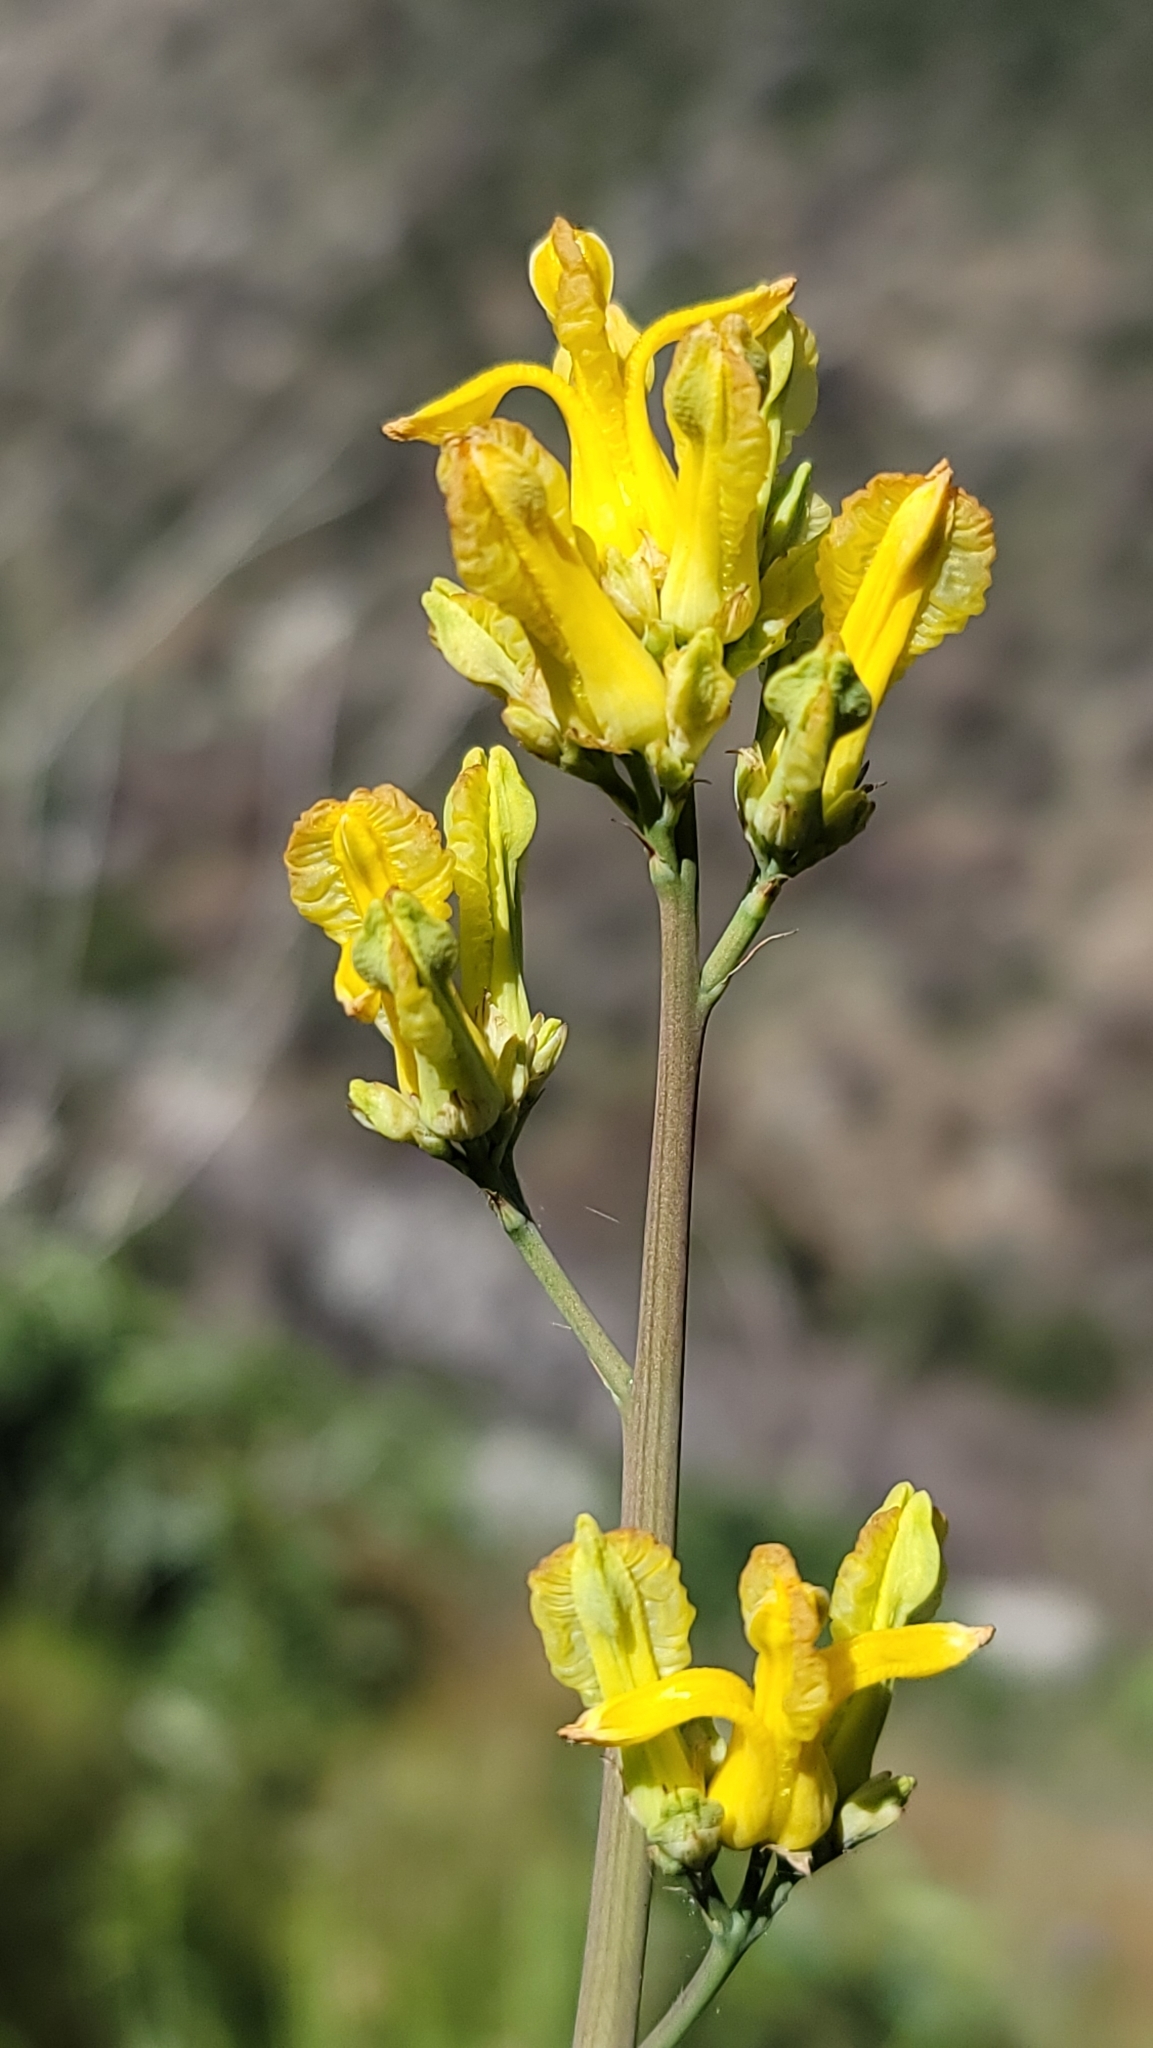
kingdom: Plantae
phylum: Tracheophyta
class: Magnoliopsida
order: Ranunculales
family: Papaveraceae
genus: Ehrendorferia
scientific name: Ehrendorferia chrysantha
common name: Golden eardrops
